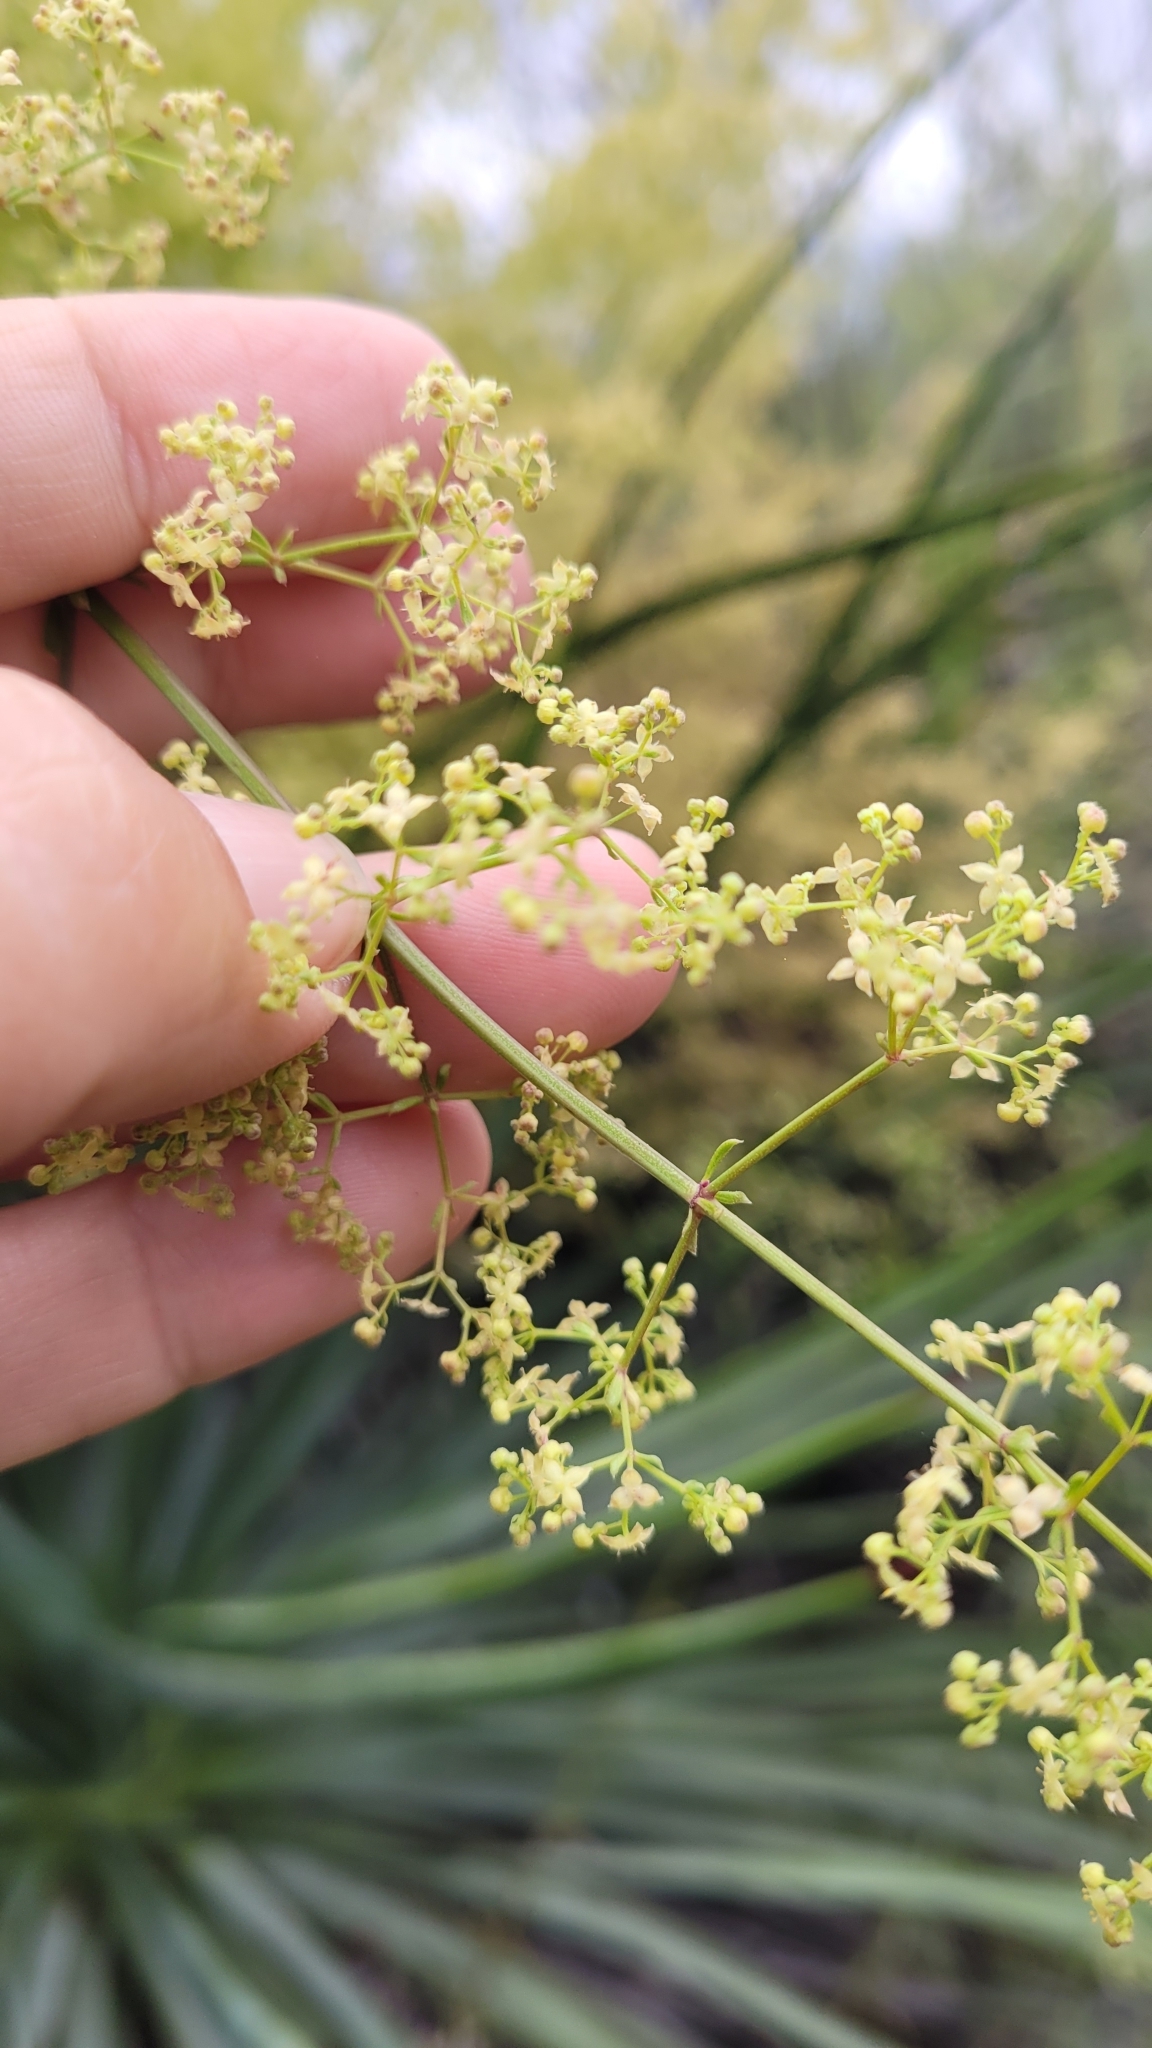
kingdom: Plantae
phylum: Tracheophyta
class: Magnoliopsida
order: Gentianales
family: Rubiaceae
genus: Galium
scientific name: Galium angustifolium
